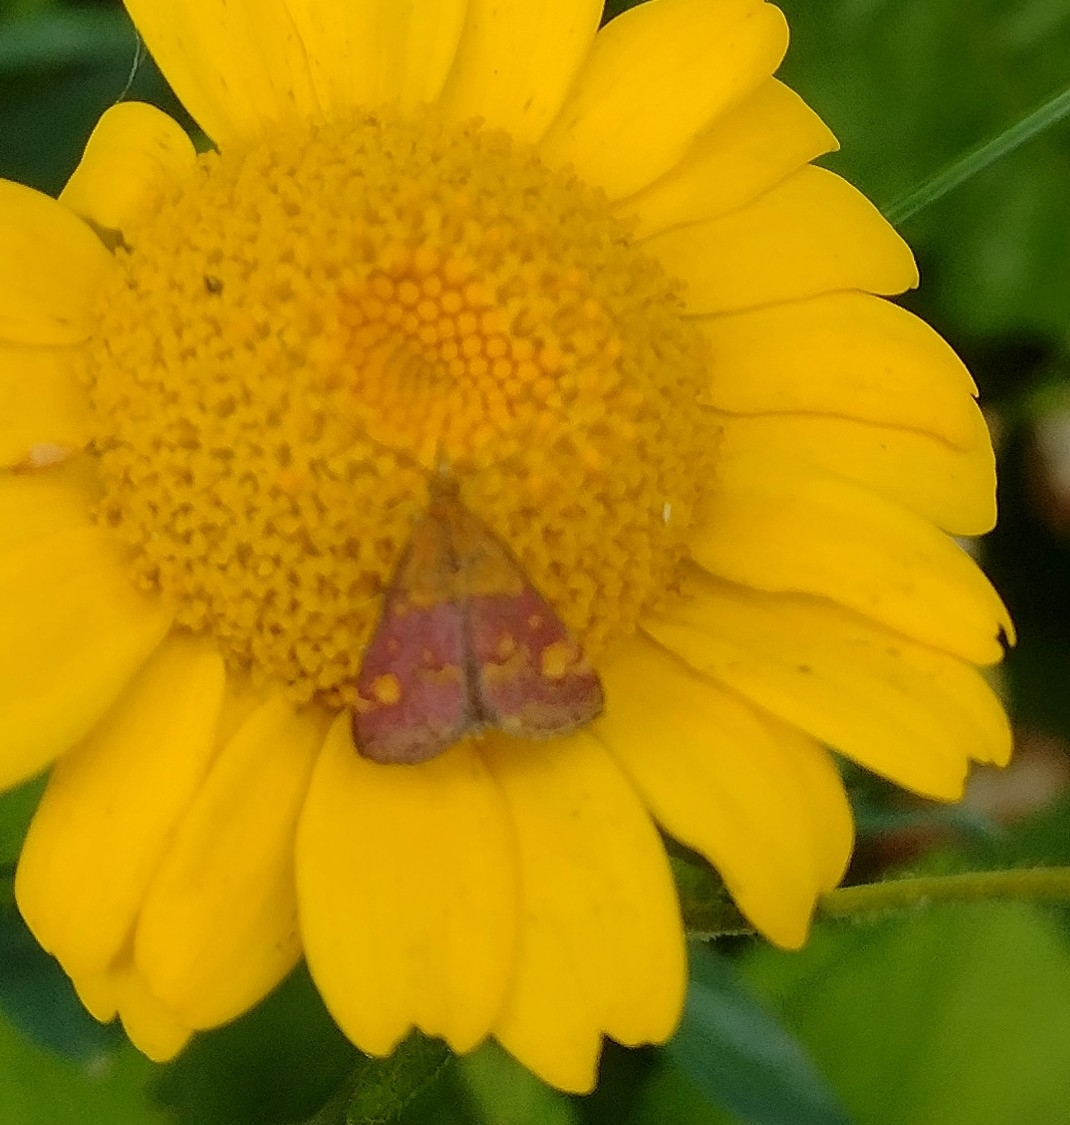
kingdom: Animalia
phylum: Arthropoda
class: Insecta
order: Lepidoptera
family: Crambidae
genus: Pyrausta
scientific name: Pyrausta aurata
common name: Small purple & gold
